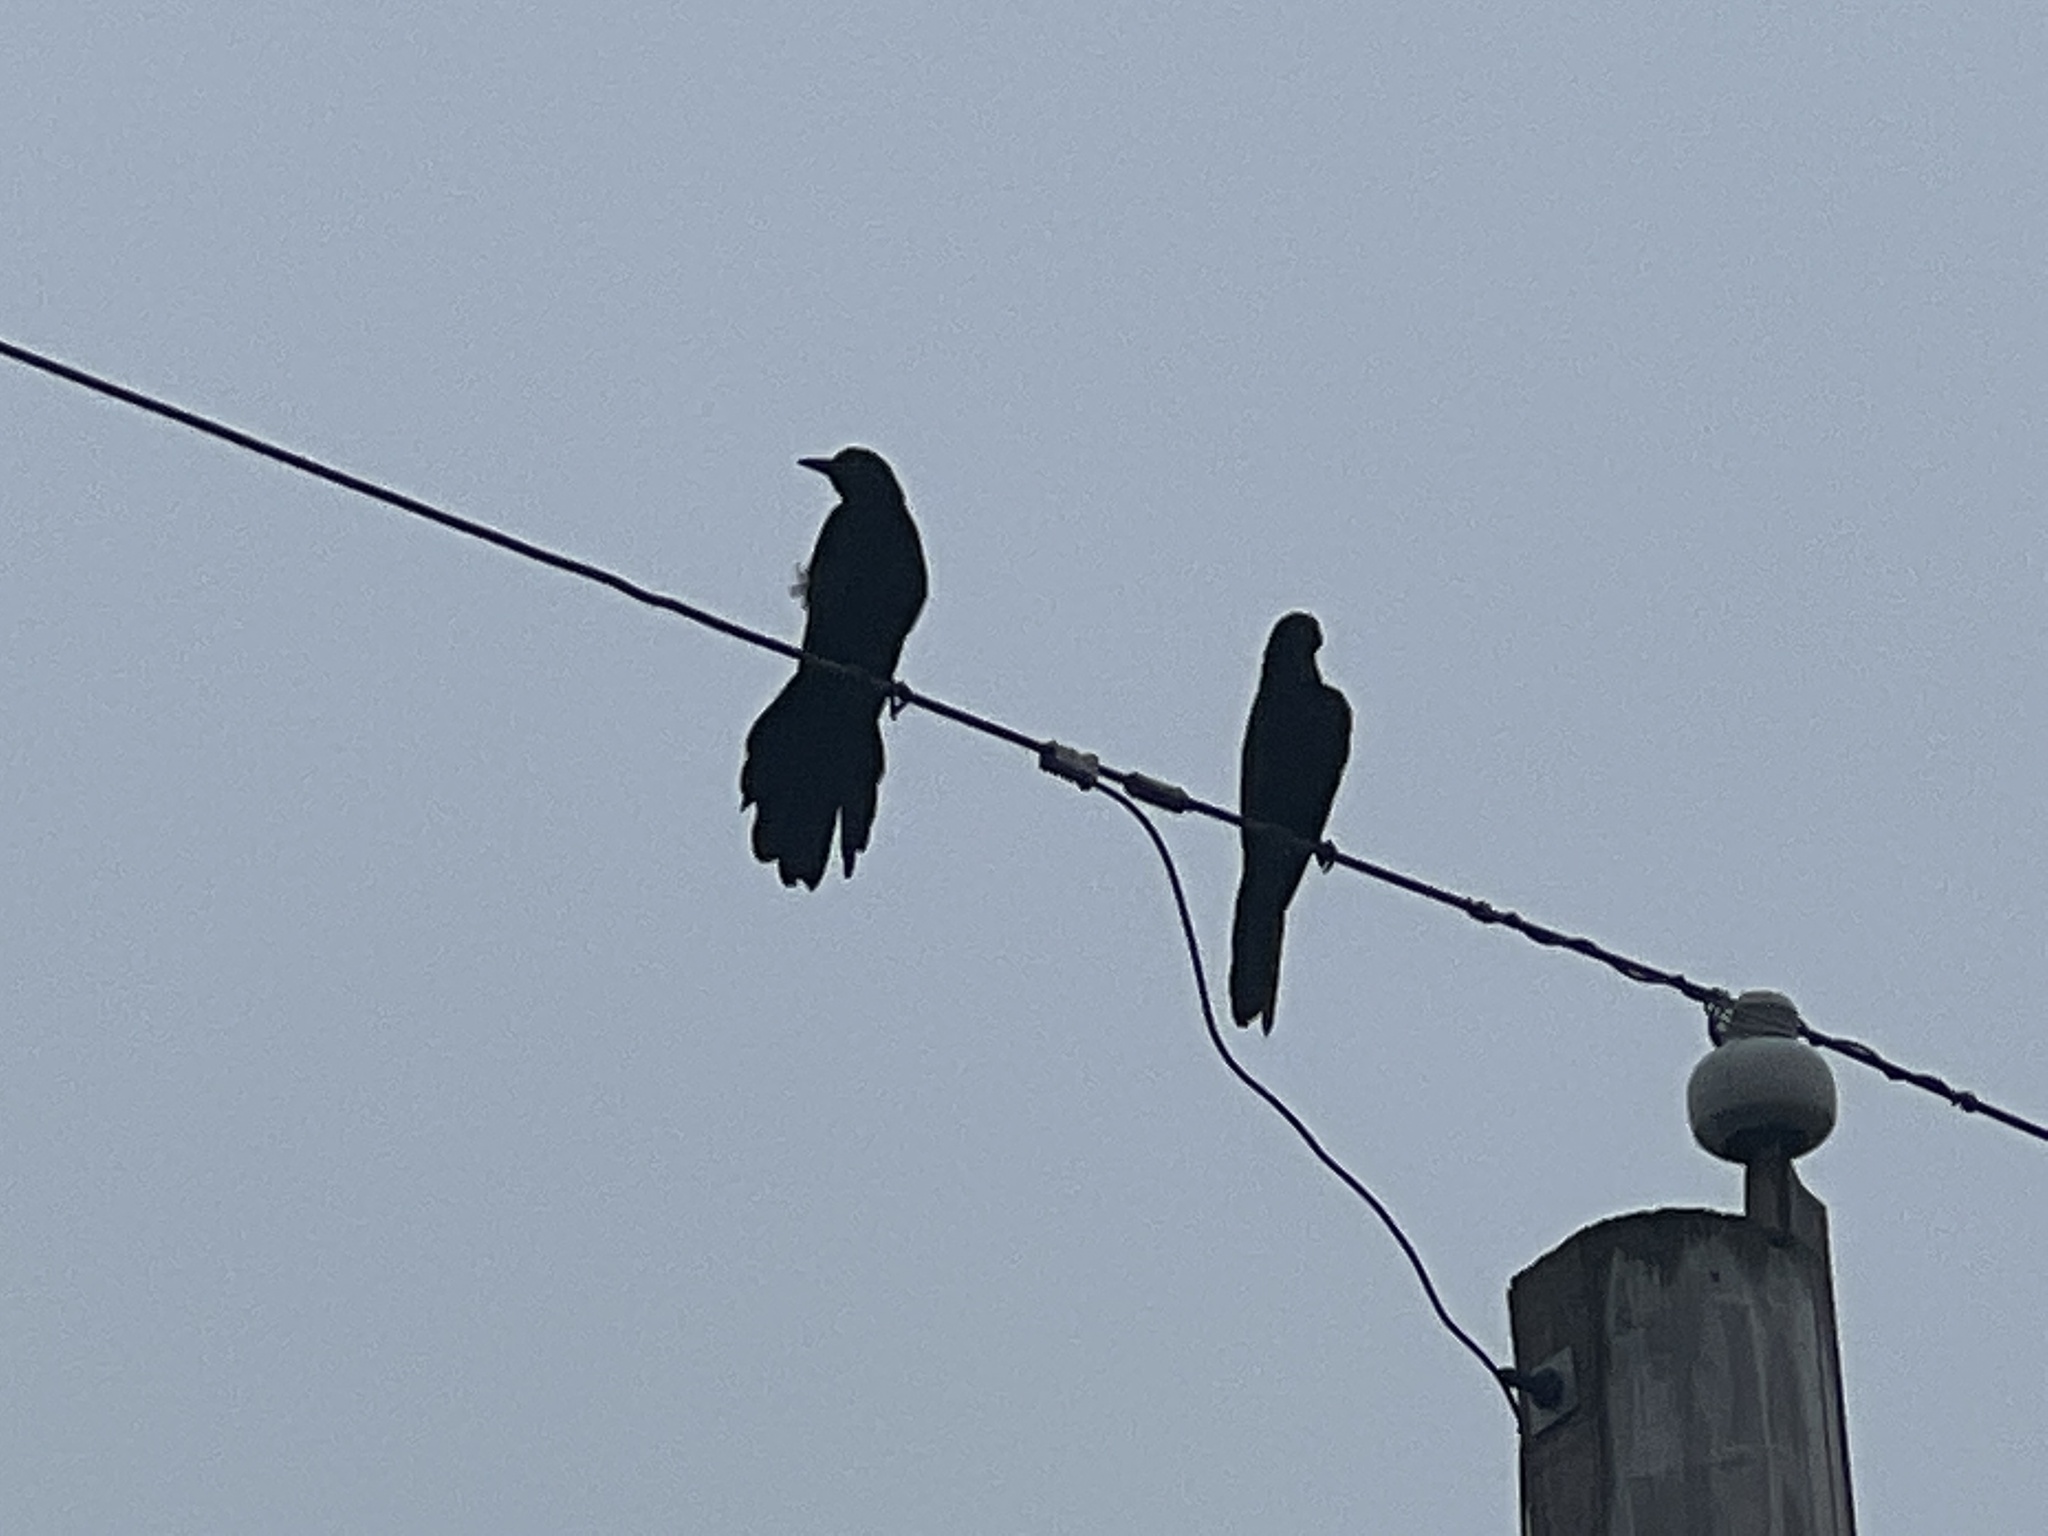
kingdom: Animalia
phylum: Chordata
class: Aves
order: Passeriformes
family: Icteridae
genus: Quiscalus
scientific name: Quiscalus mexicanus
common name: Great-tailed grackle
